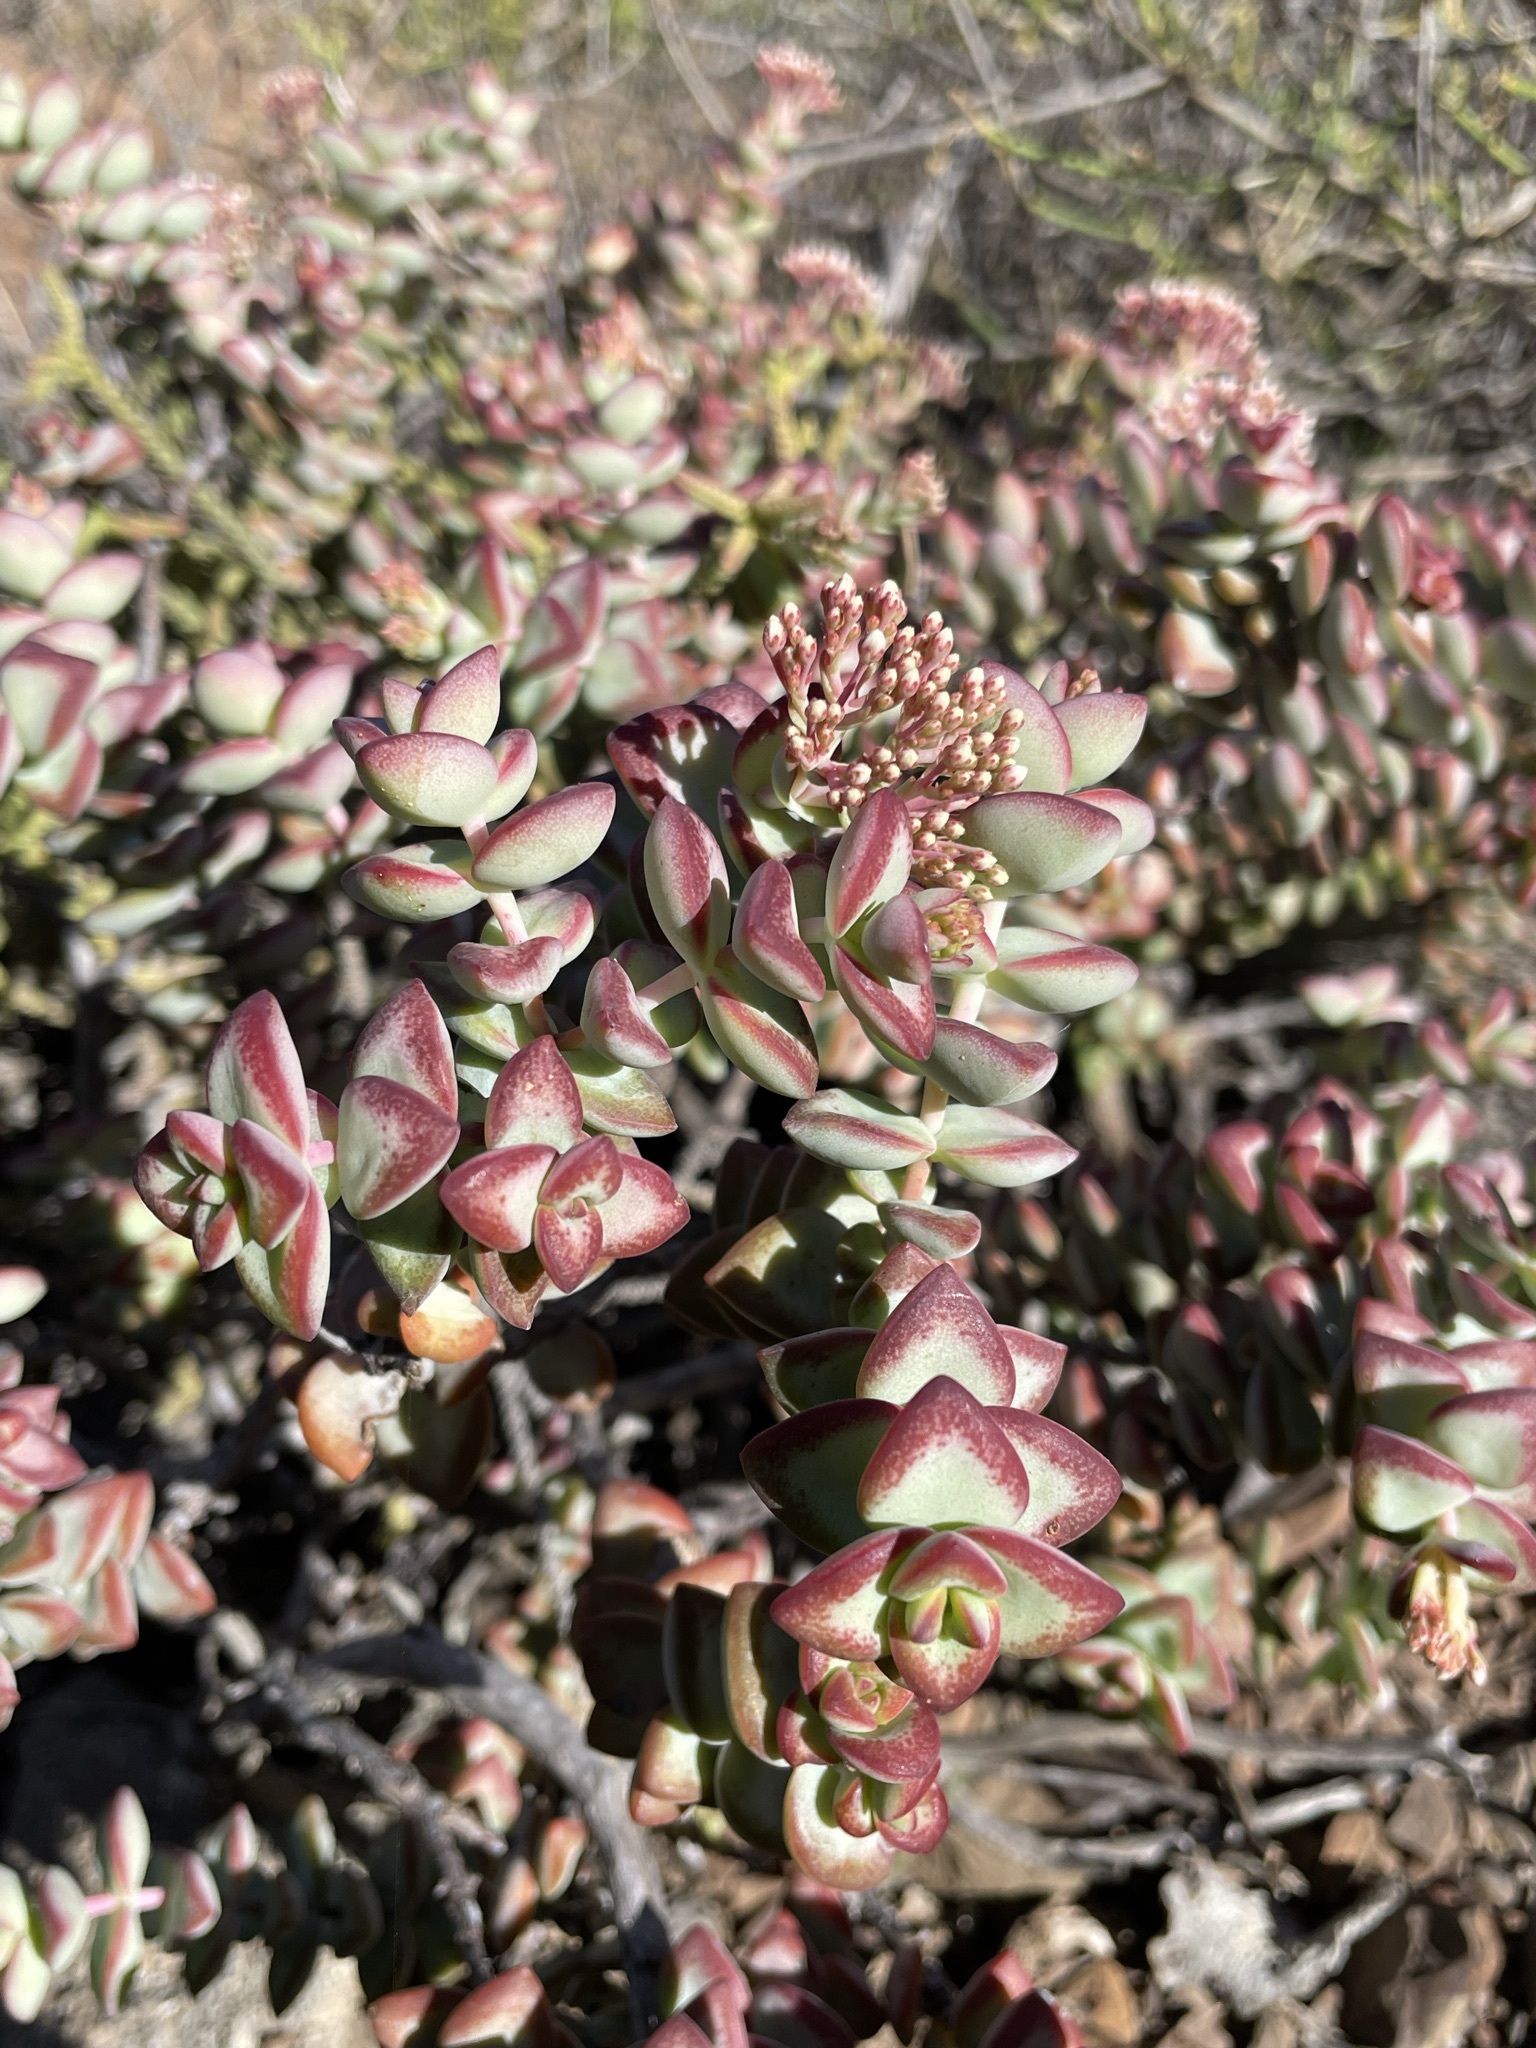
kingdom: Plantae
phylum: Tracheophyta
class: Magnoliopsida
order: Saxifragales
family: Crassulaceae
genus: Crassula
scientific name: Crassula rupestris
